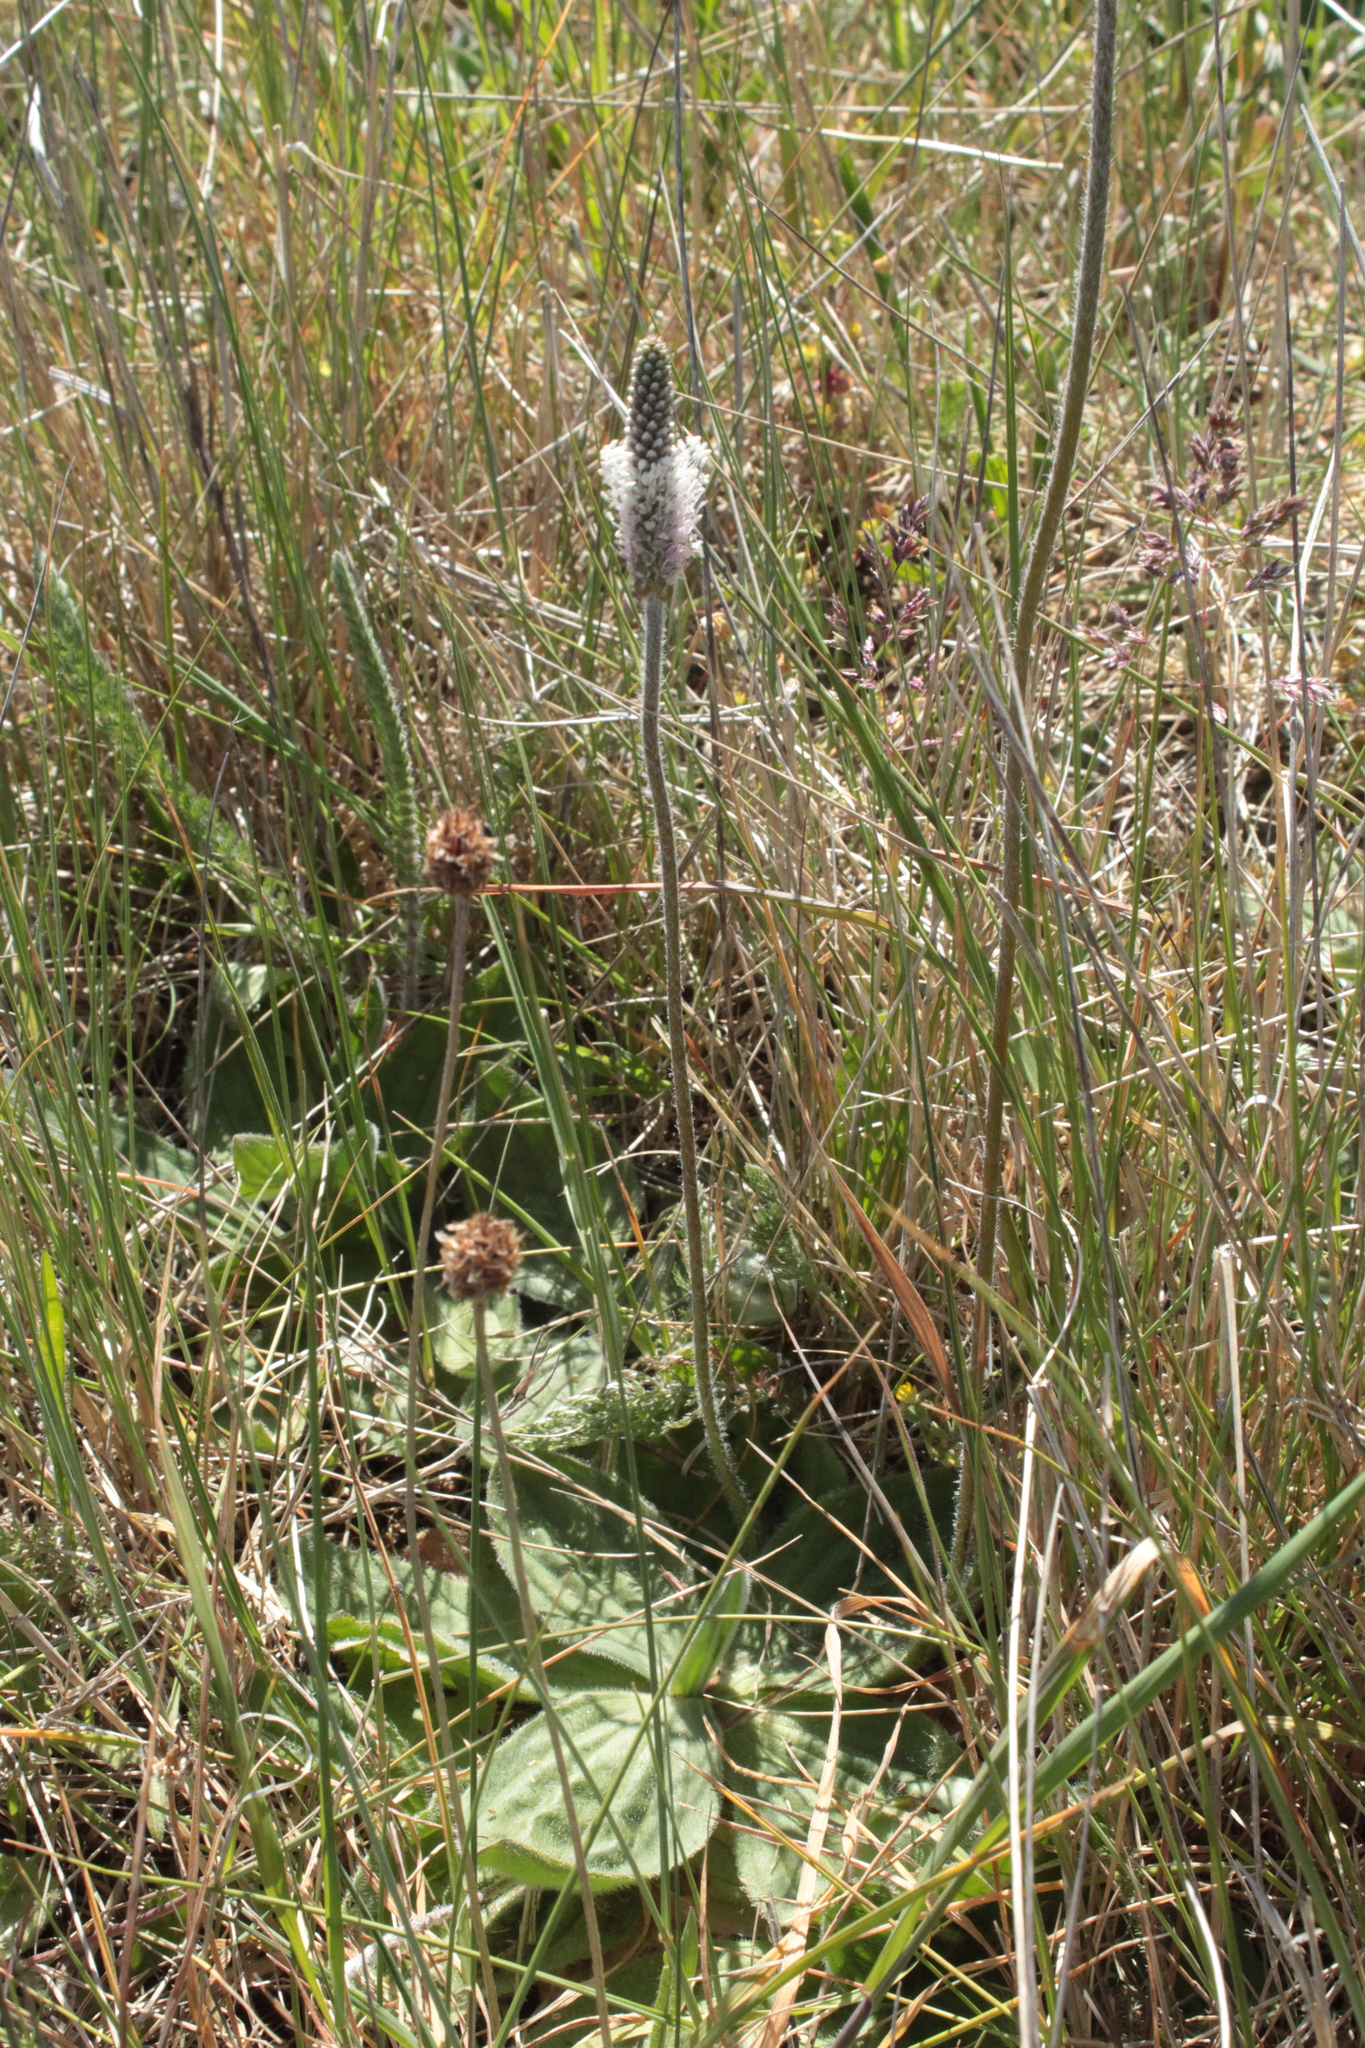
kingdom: Plantae
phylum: Tracheophyta
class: Magnoliopsida
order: Lamiales
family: Plantaginaceae
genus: Plantago
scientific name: Plantago media
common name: Hoary plantain
